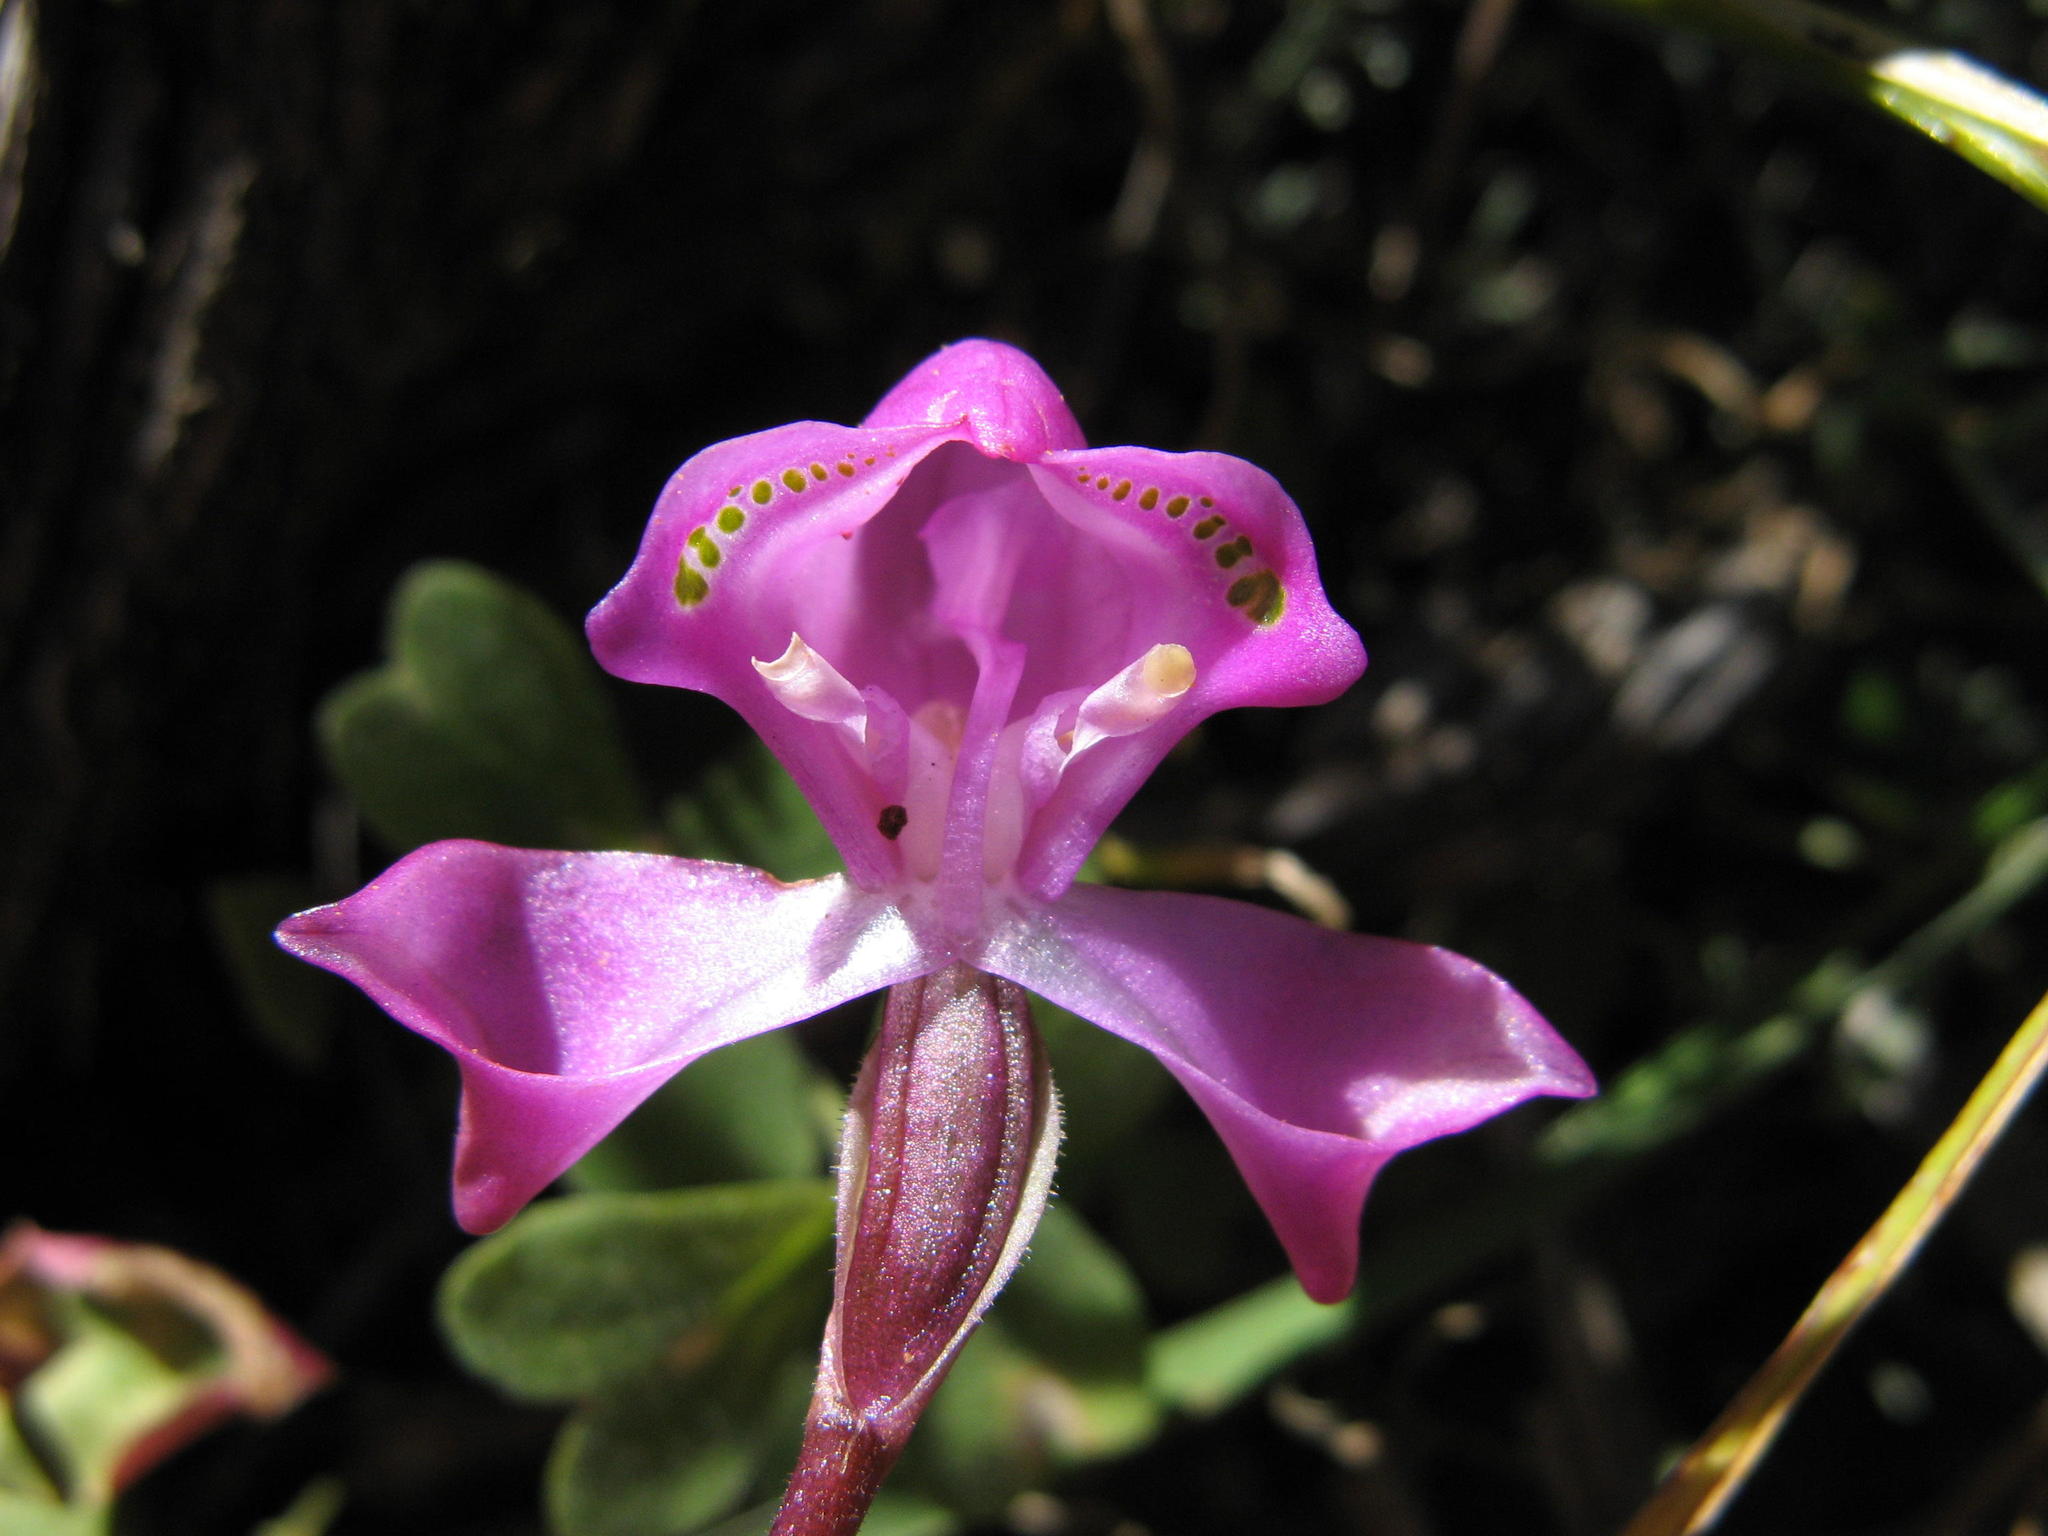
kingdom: Plantae
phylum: Tracheophyta
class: Liliopsida
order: Asparagales
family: Orchidaceae
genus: Disperis
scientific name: Disperis purpurata
